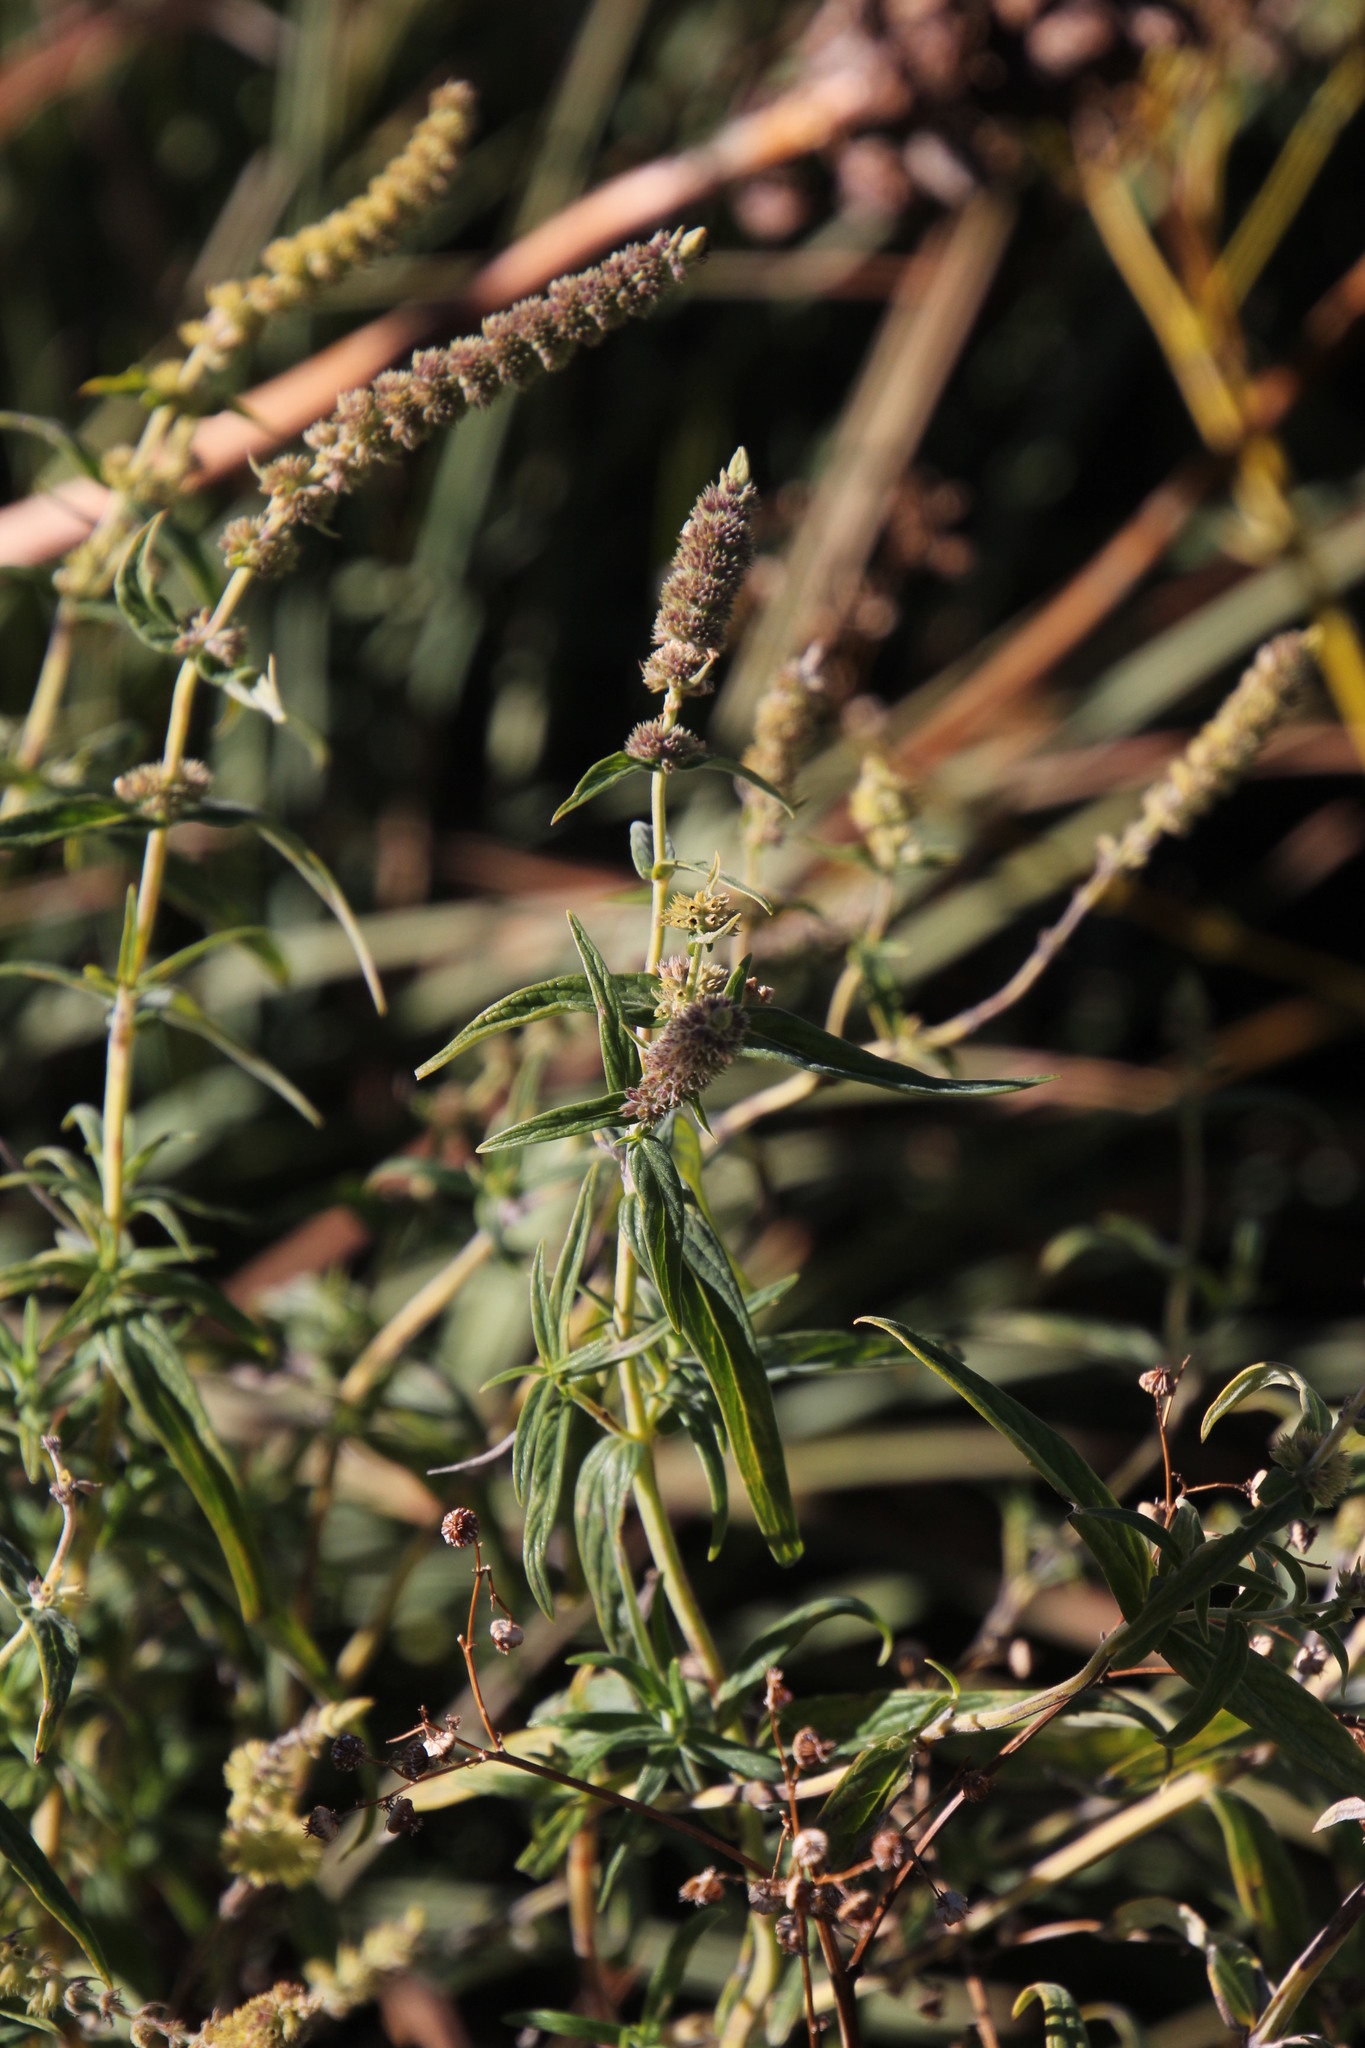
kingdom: Plantae
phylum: Tracheophyta
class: Magnoliopsida
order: Lamiales
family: Lamiaceae
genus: Mentha
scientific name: Mentha longifolia
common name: Horse mint
